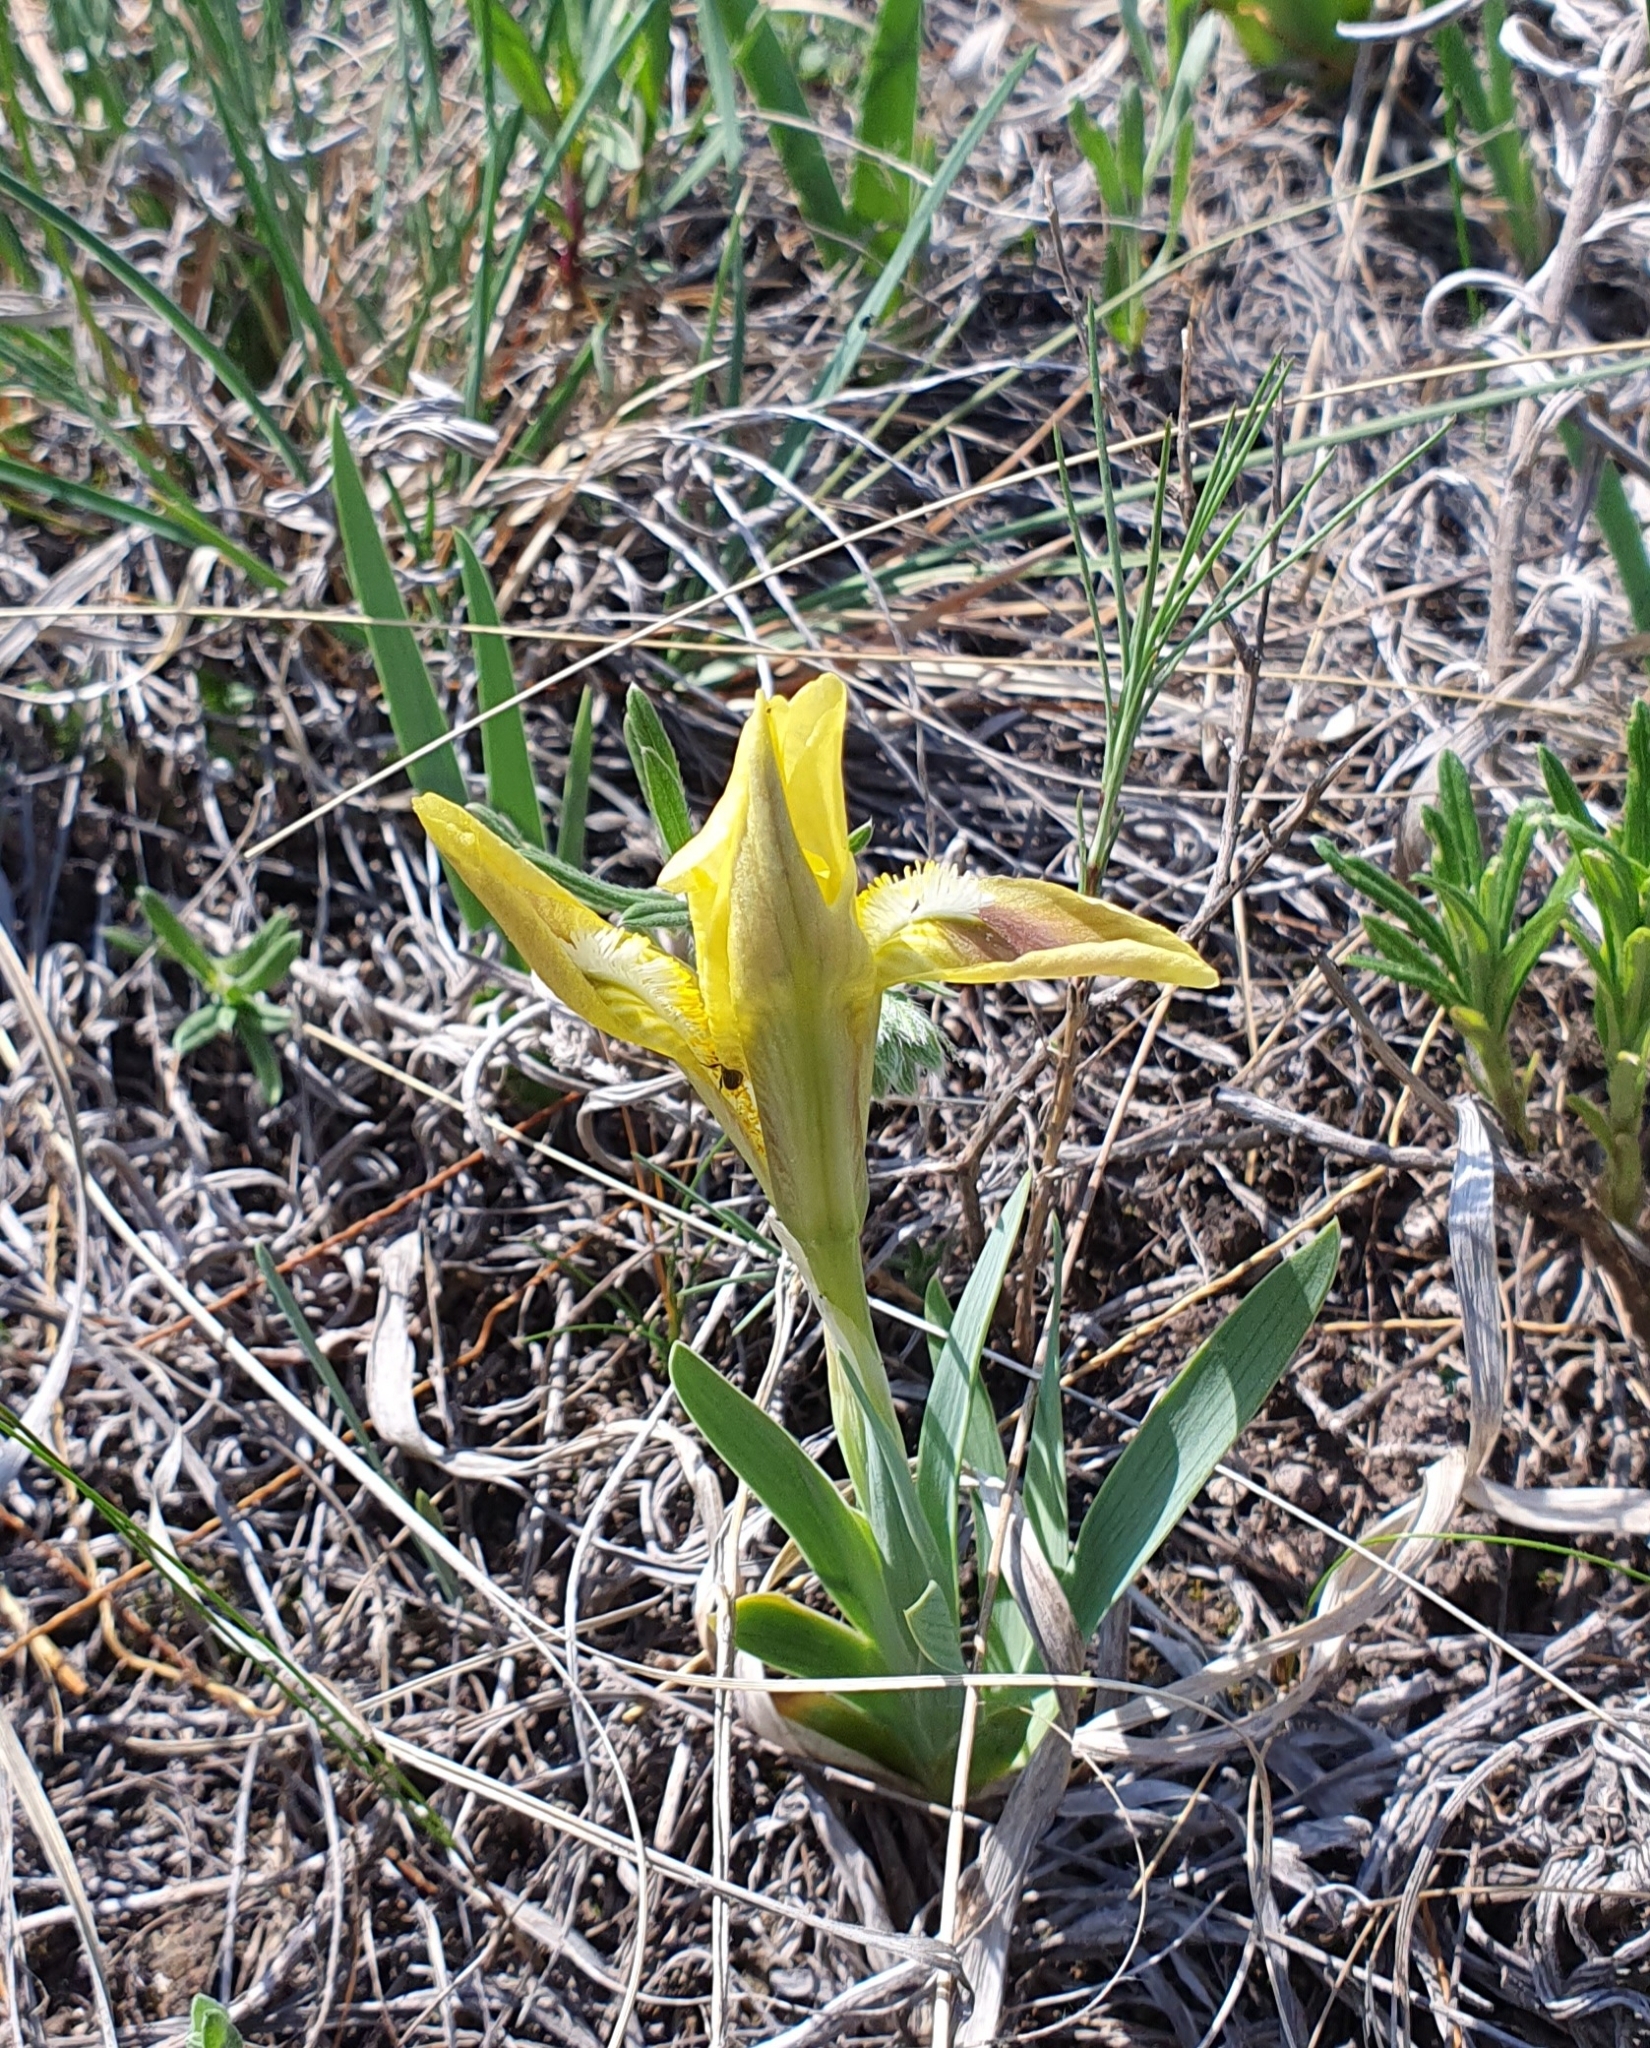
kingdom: Plantae
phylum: Tracheophyta
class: Liliopsida
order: Asparagales
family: Iridaceae
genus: Iris
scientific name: Iris pumila
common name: Dwarf iris
